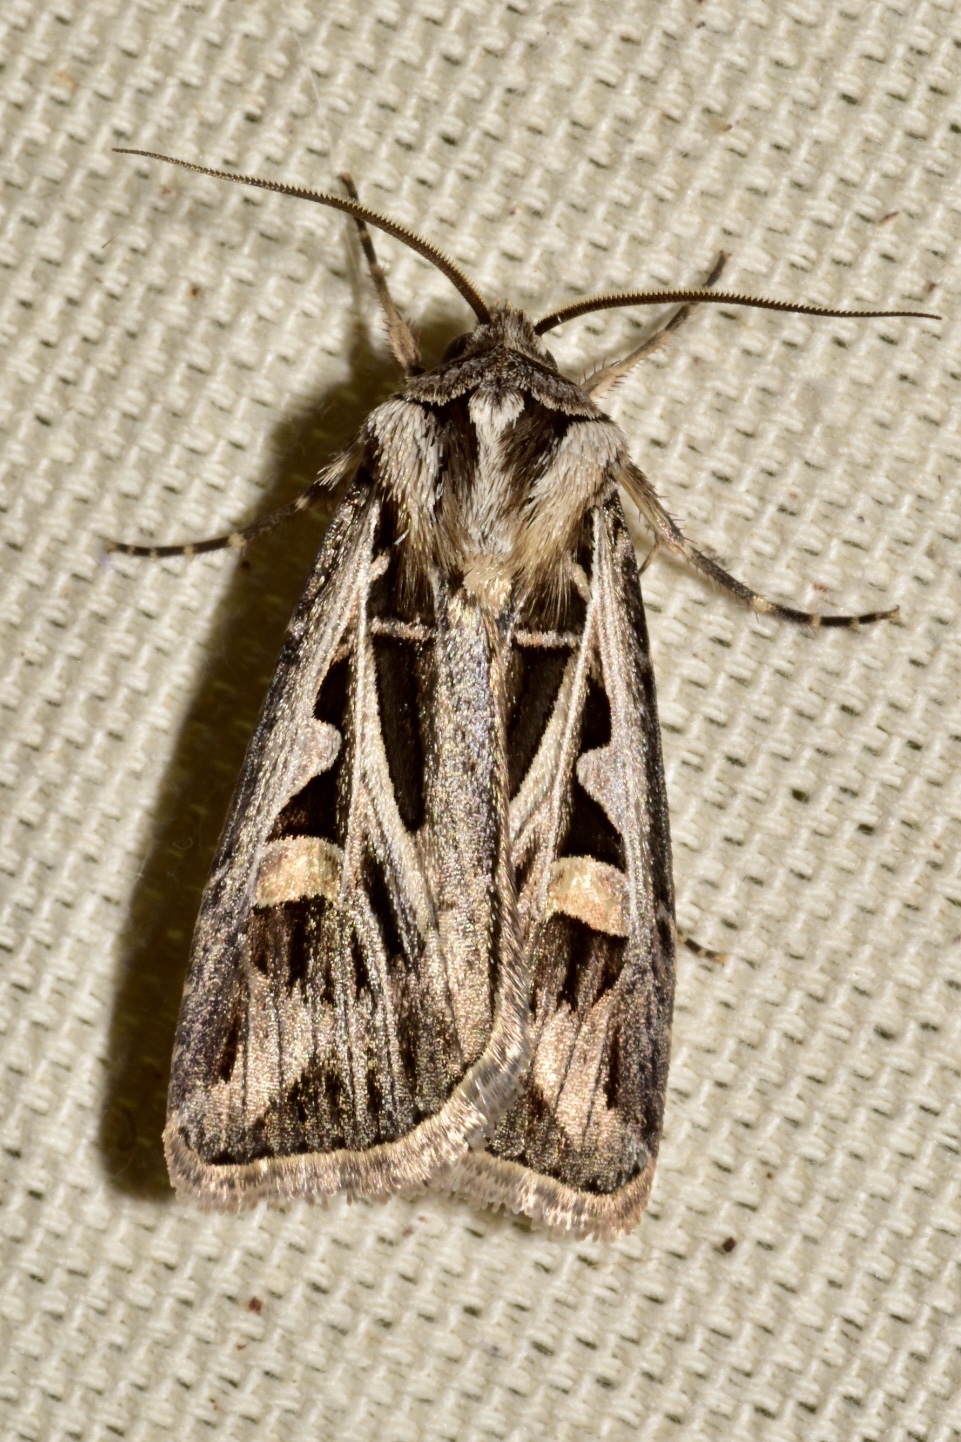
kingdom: Animalia
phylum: Arthropoda
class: Insecta
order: Lepidoptera
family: Noctuidae
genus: Feltia
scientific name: Feltia jaculifera
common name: Dingy cutworm moth
